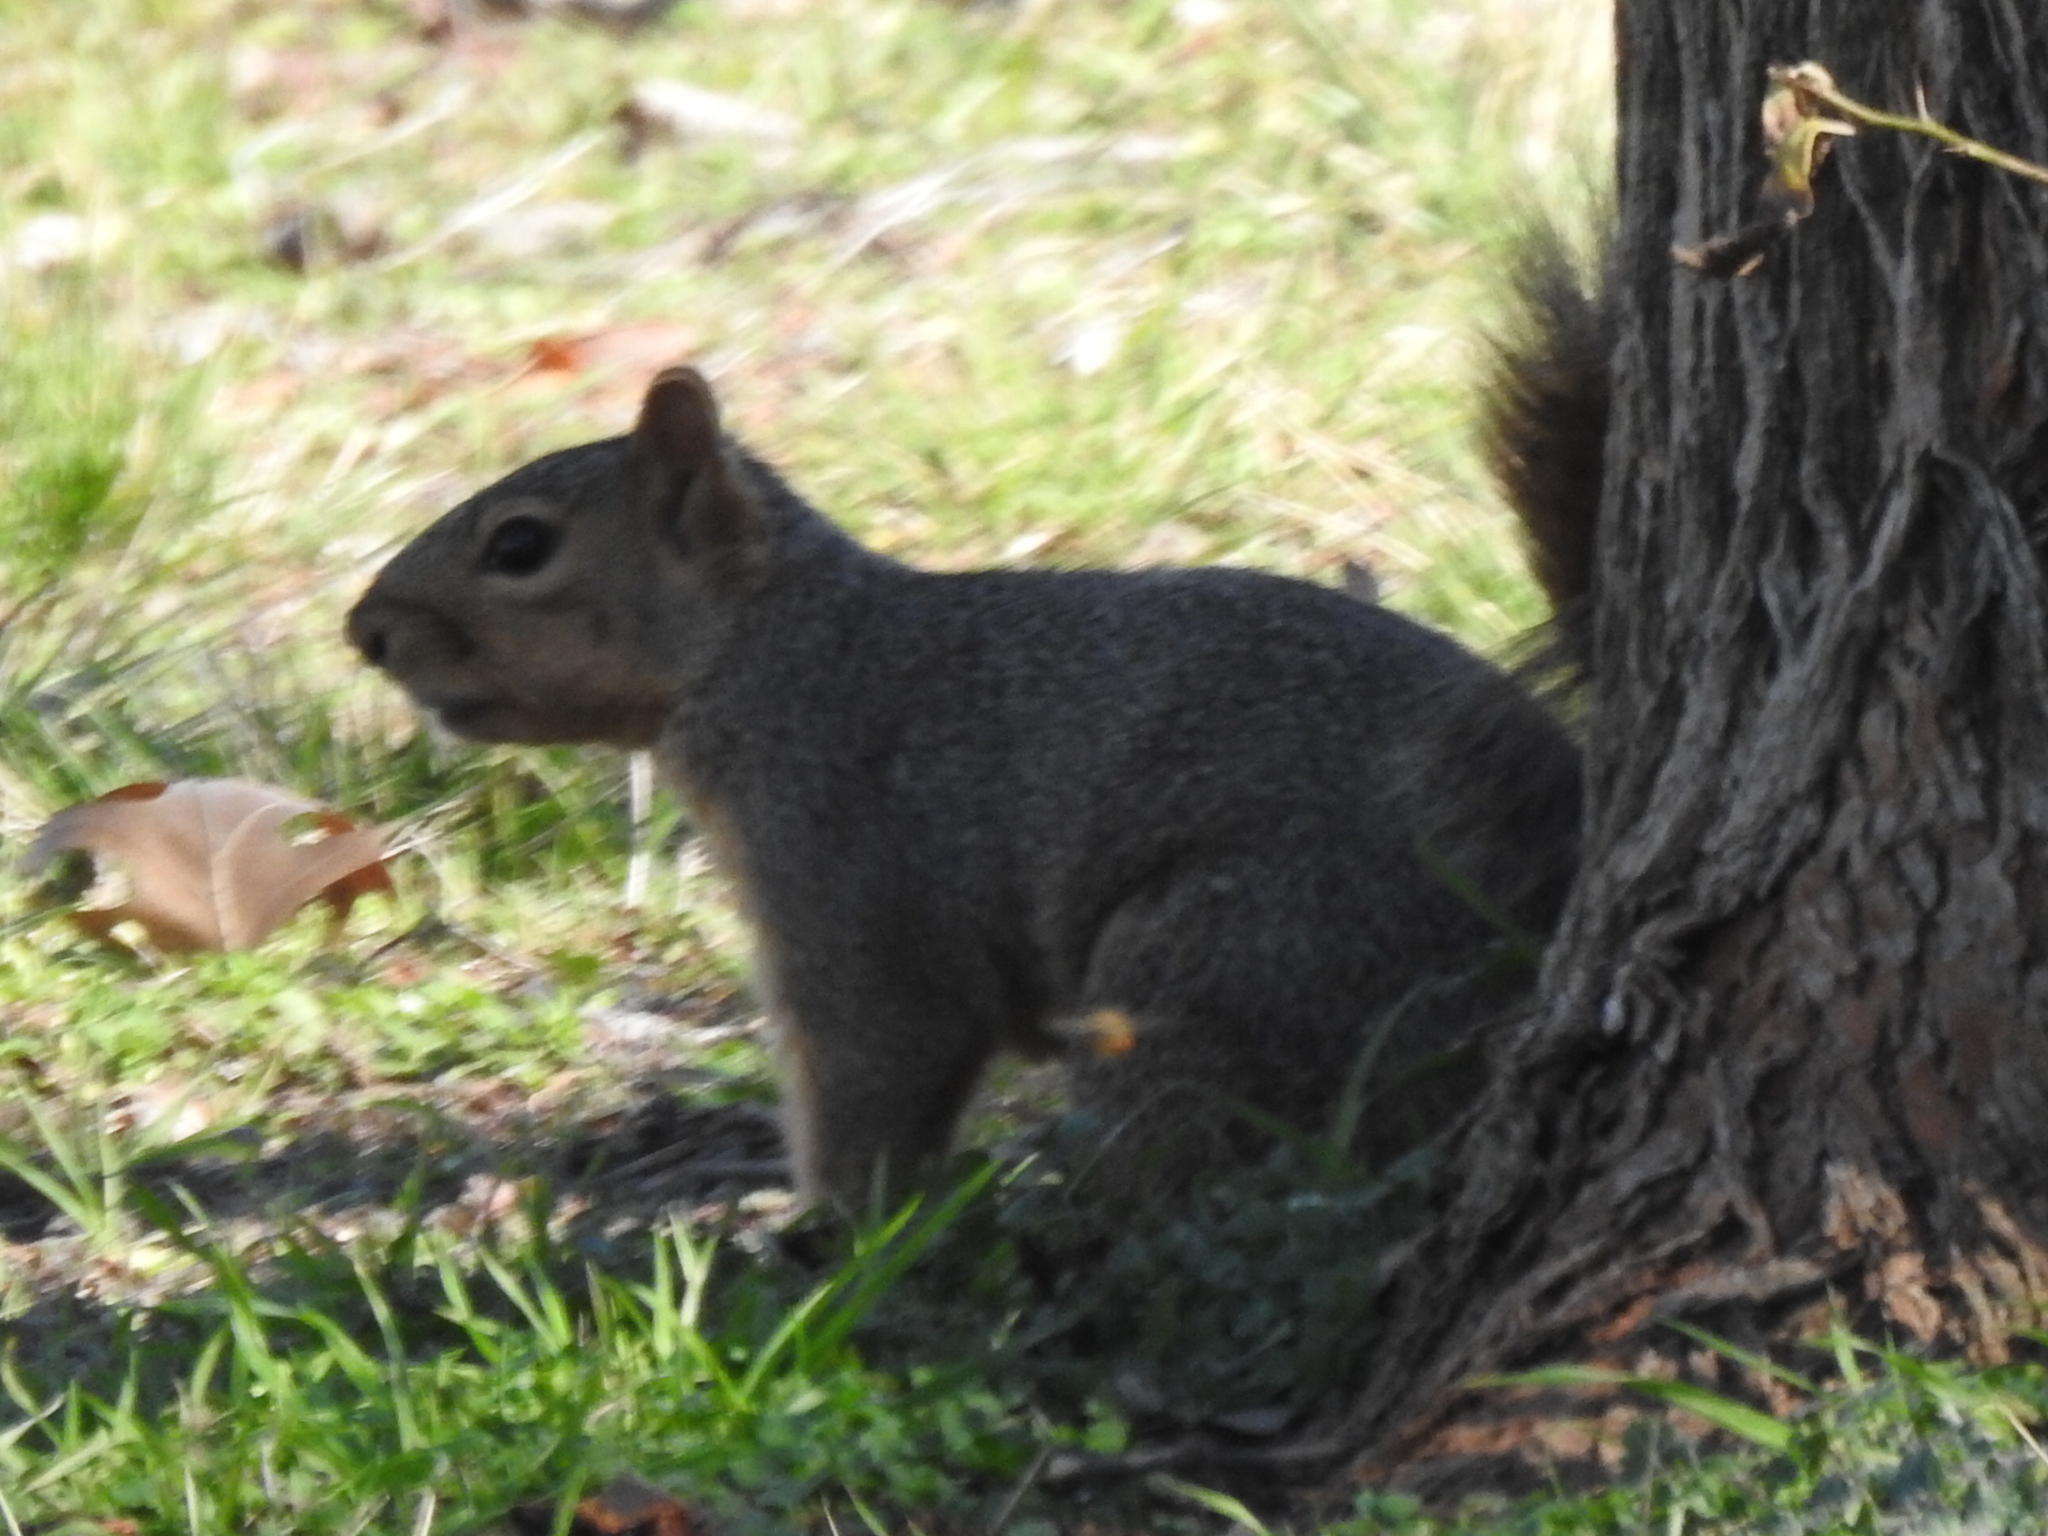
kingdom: Animalia
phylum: Chordata
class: Mammalia
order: Rodentia
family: Sciuridae
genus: Sciurus
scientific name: Sciurus niger
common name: Fox squirrel
